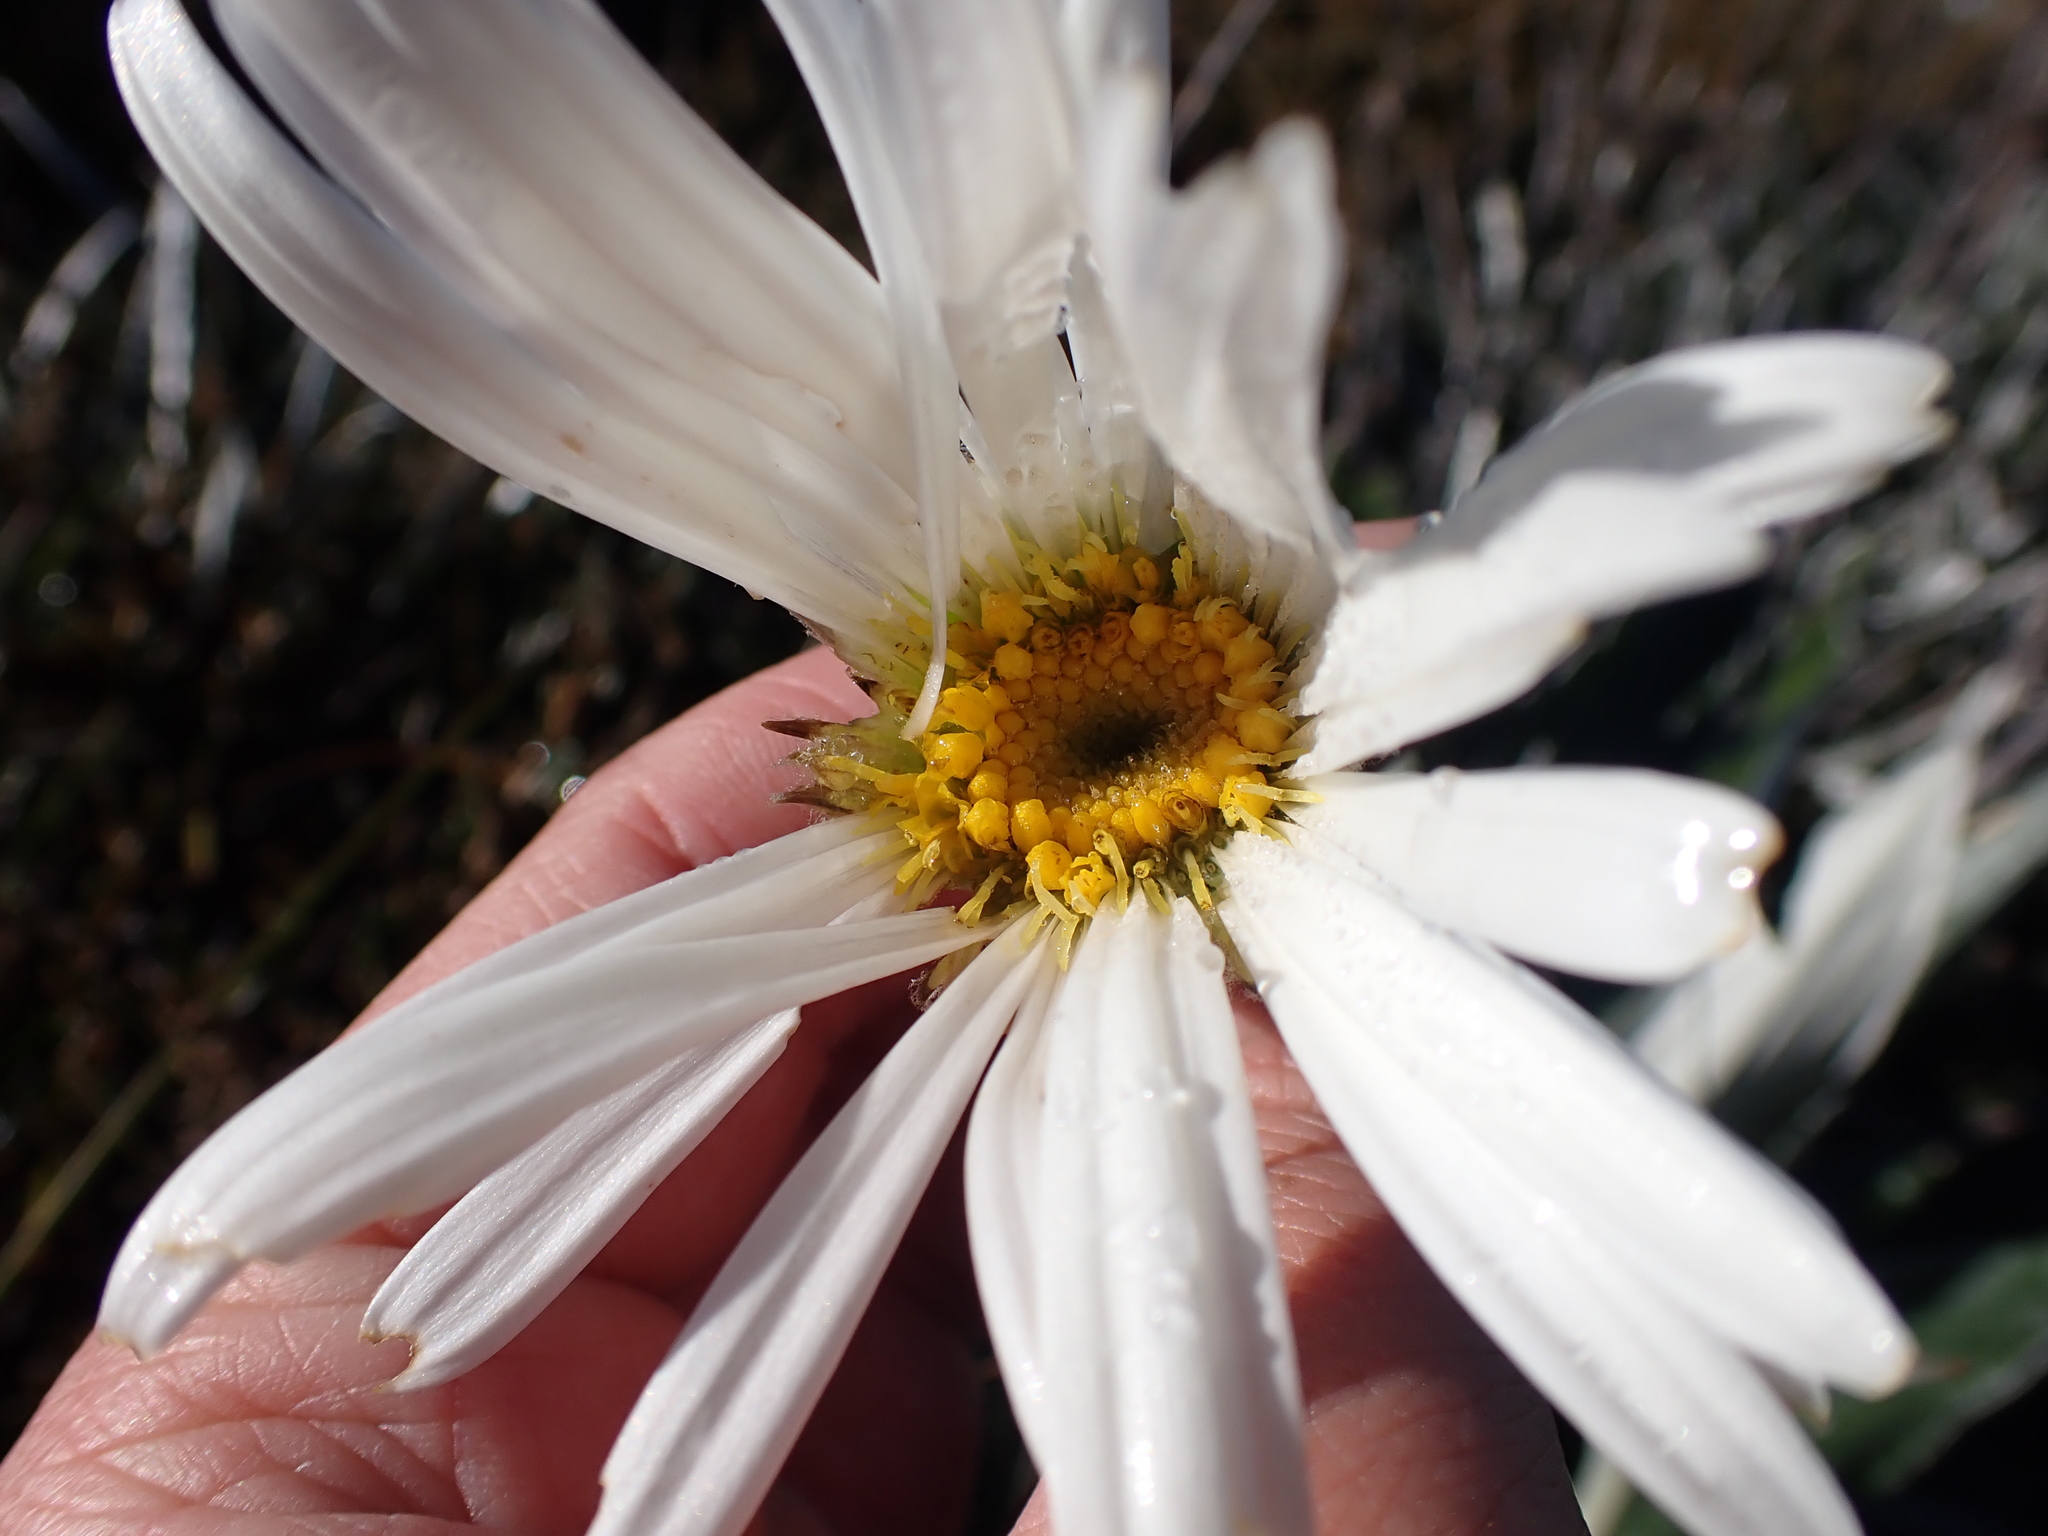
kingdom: Plantae
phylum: Tracheophyta
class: Magnoliopsida
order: Asterales
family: Asteraceae
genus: Celmisia
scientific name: Celmisia latifolia
